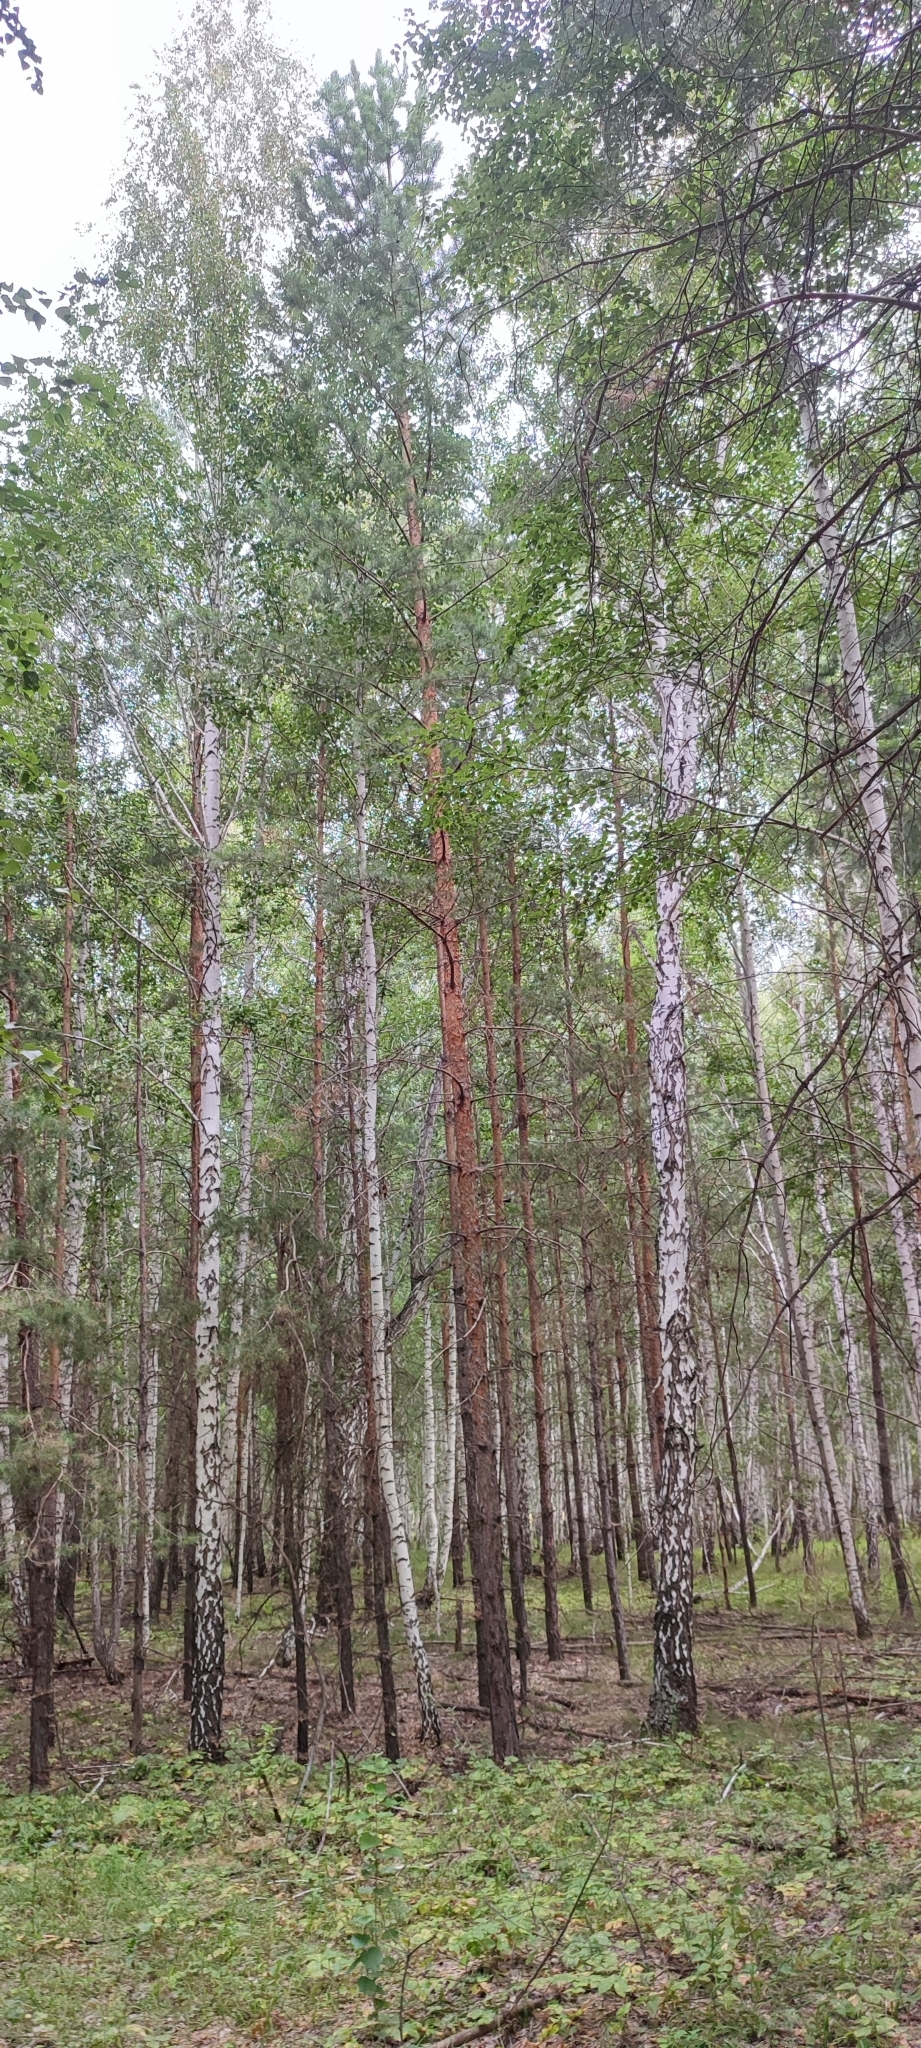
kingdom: Plantae
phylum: Tracheophyta
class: Pinopsida
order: Pinales
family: Pinaceae
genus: Pinus
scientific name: Pinus sylvestris
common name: Scots pine
